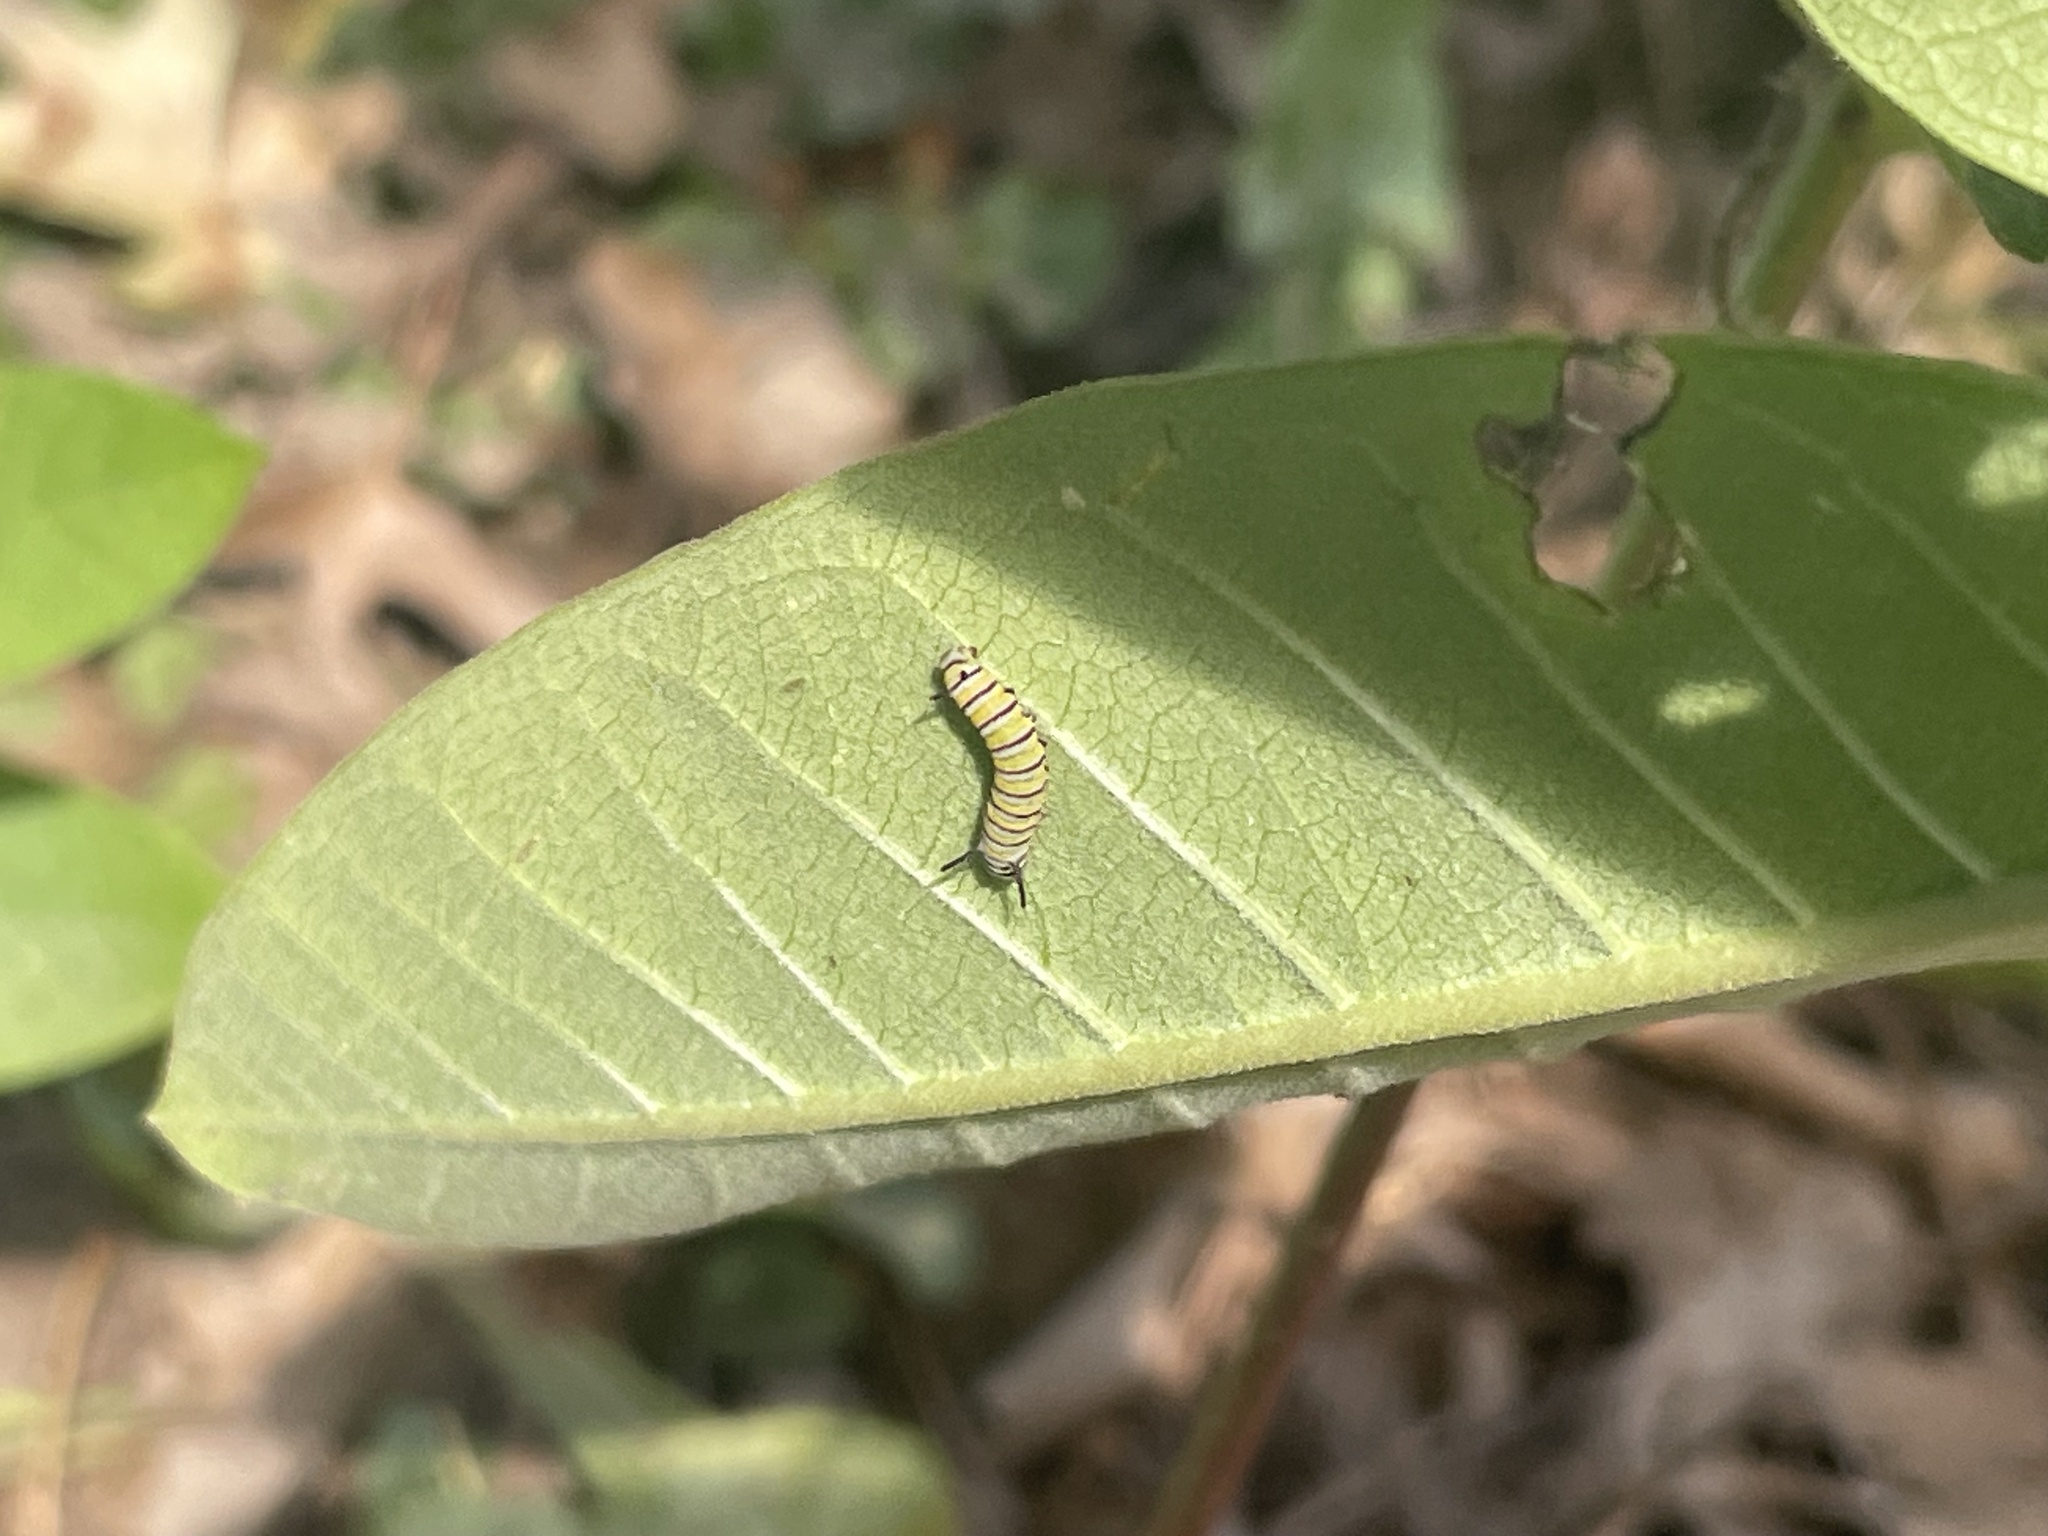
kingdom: Animalia
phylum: Arthropoda
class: Insecta
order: Lepidoptera
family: Nymphalidae
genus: Danaus
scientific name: Danaus plexippus
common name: Monarch
